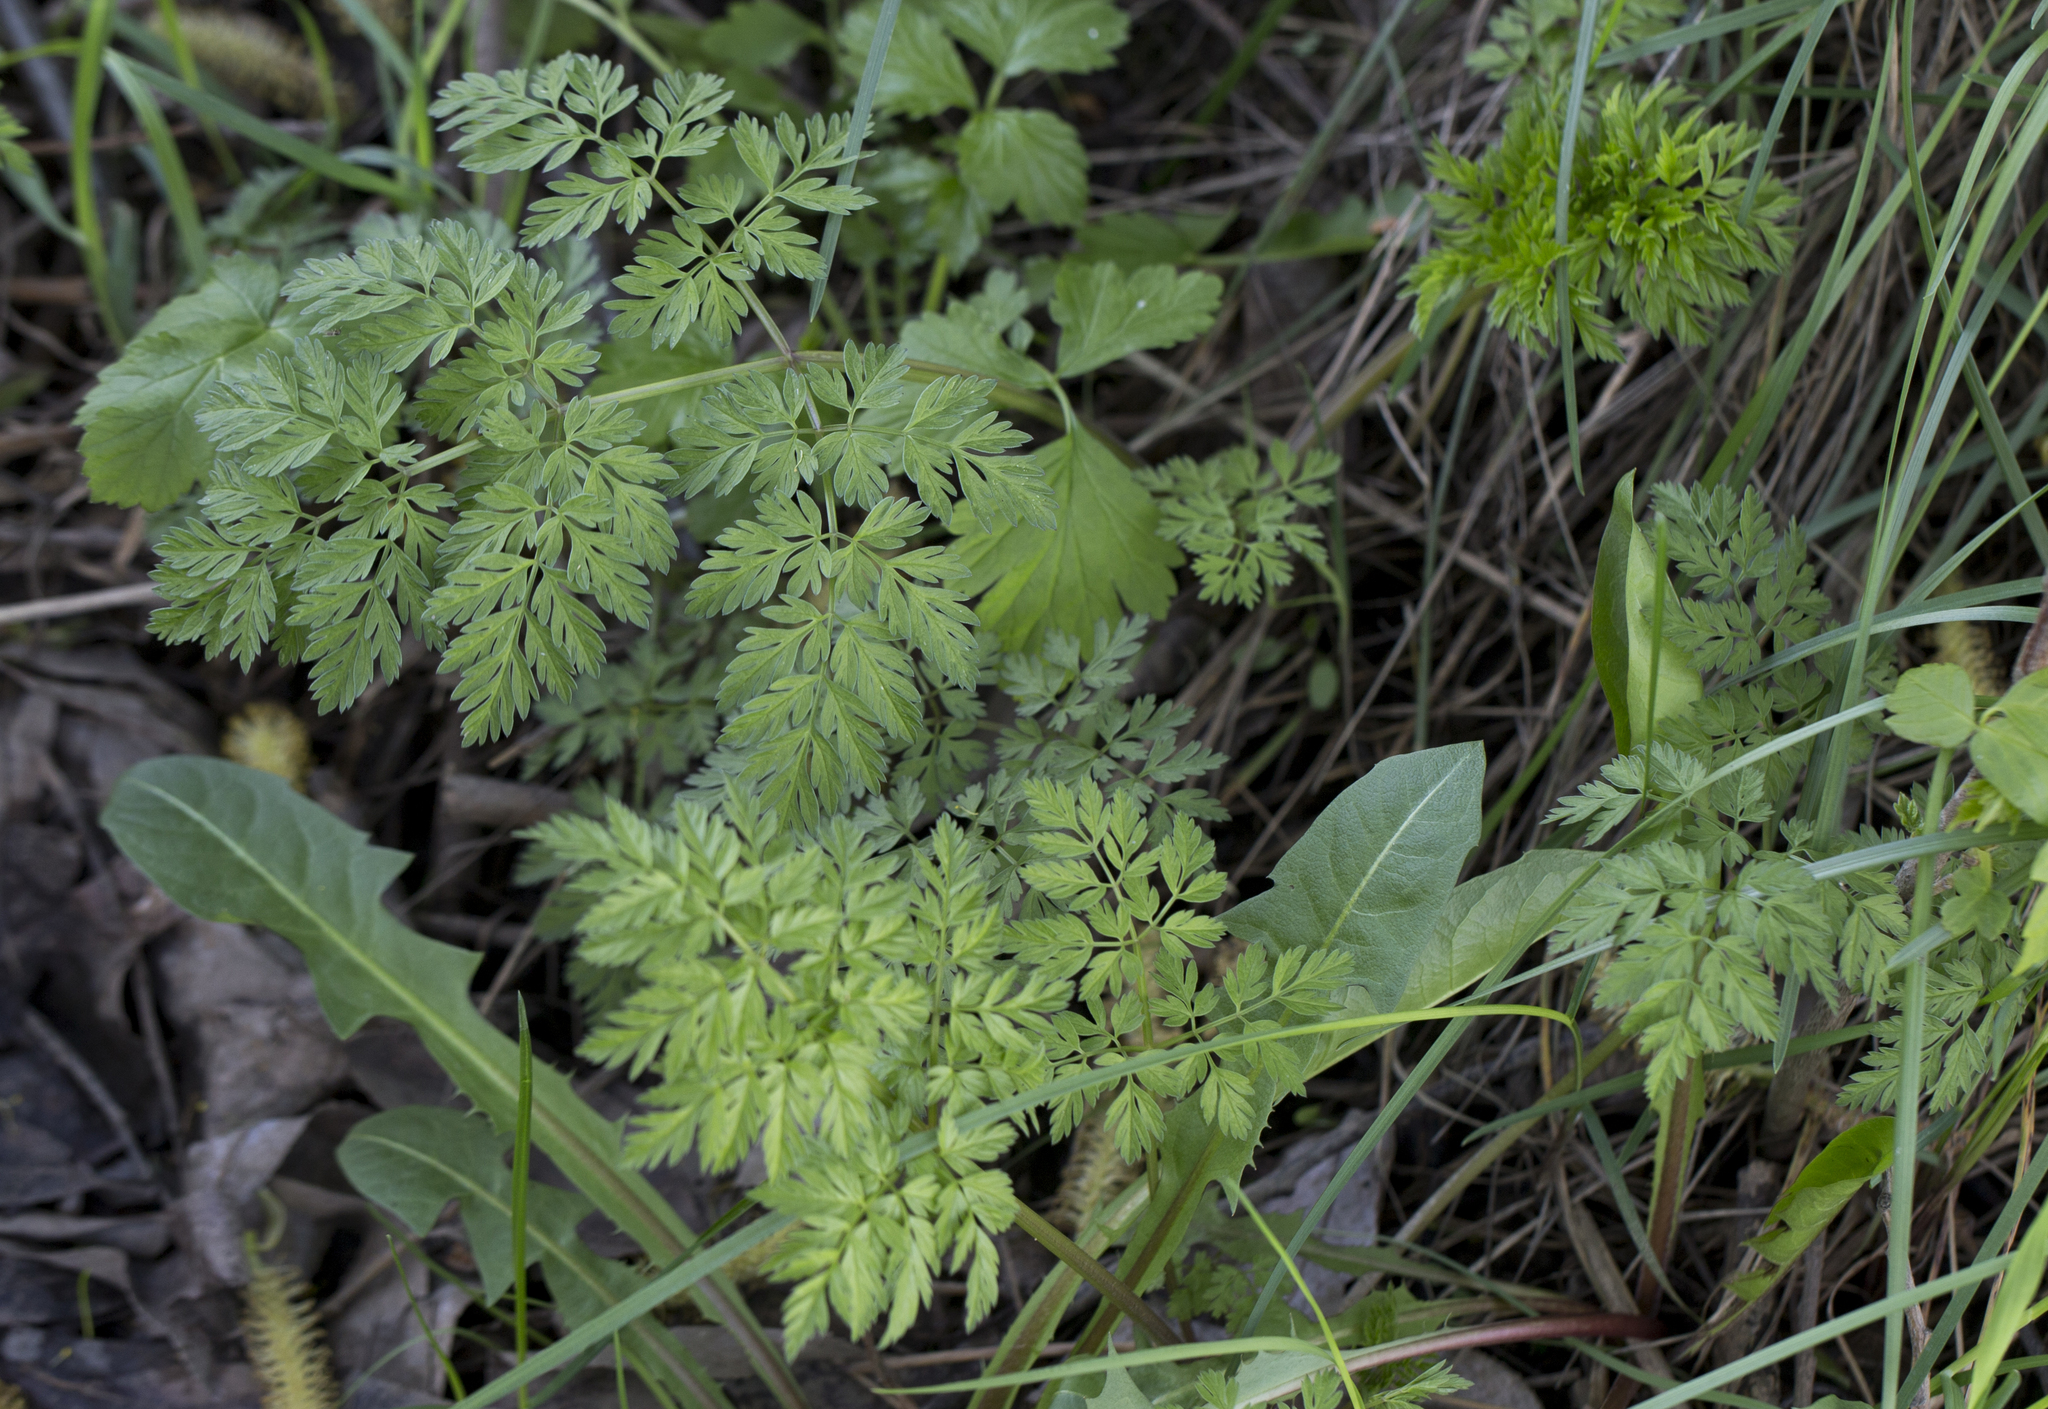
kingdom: Plantae
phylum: Tracheophyta
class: Magnoliopsida
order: Apiales
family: Apiaceae
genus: Anthriscus
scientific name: Anthriscus sylvestris
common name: Cow parsley
